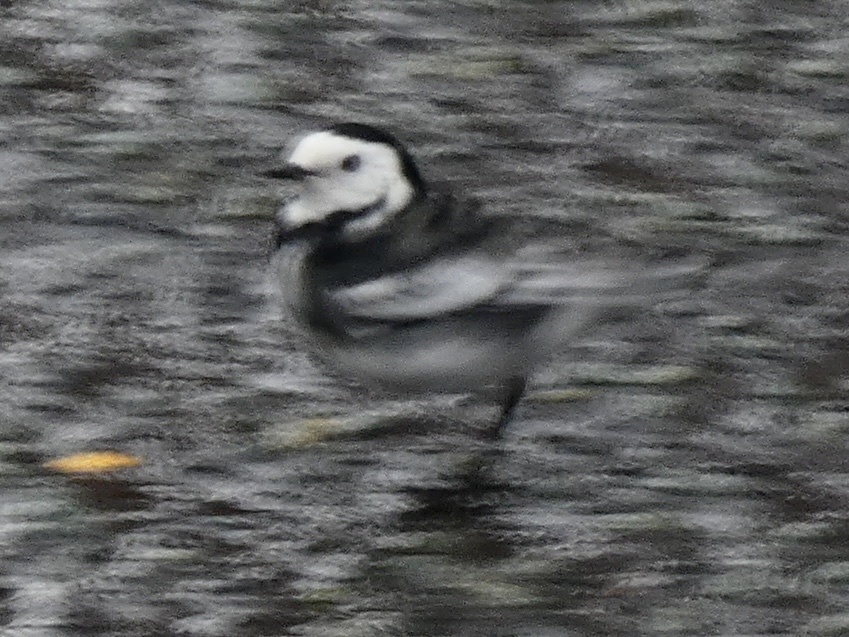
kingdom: Animalia
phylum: Chordata
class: Aves
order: Passeriformes
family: Motacillidae
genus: Motacilla
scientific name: Motacilla alba
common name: White wagtail
